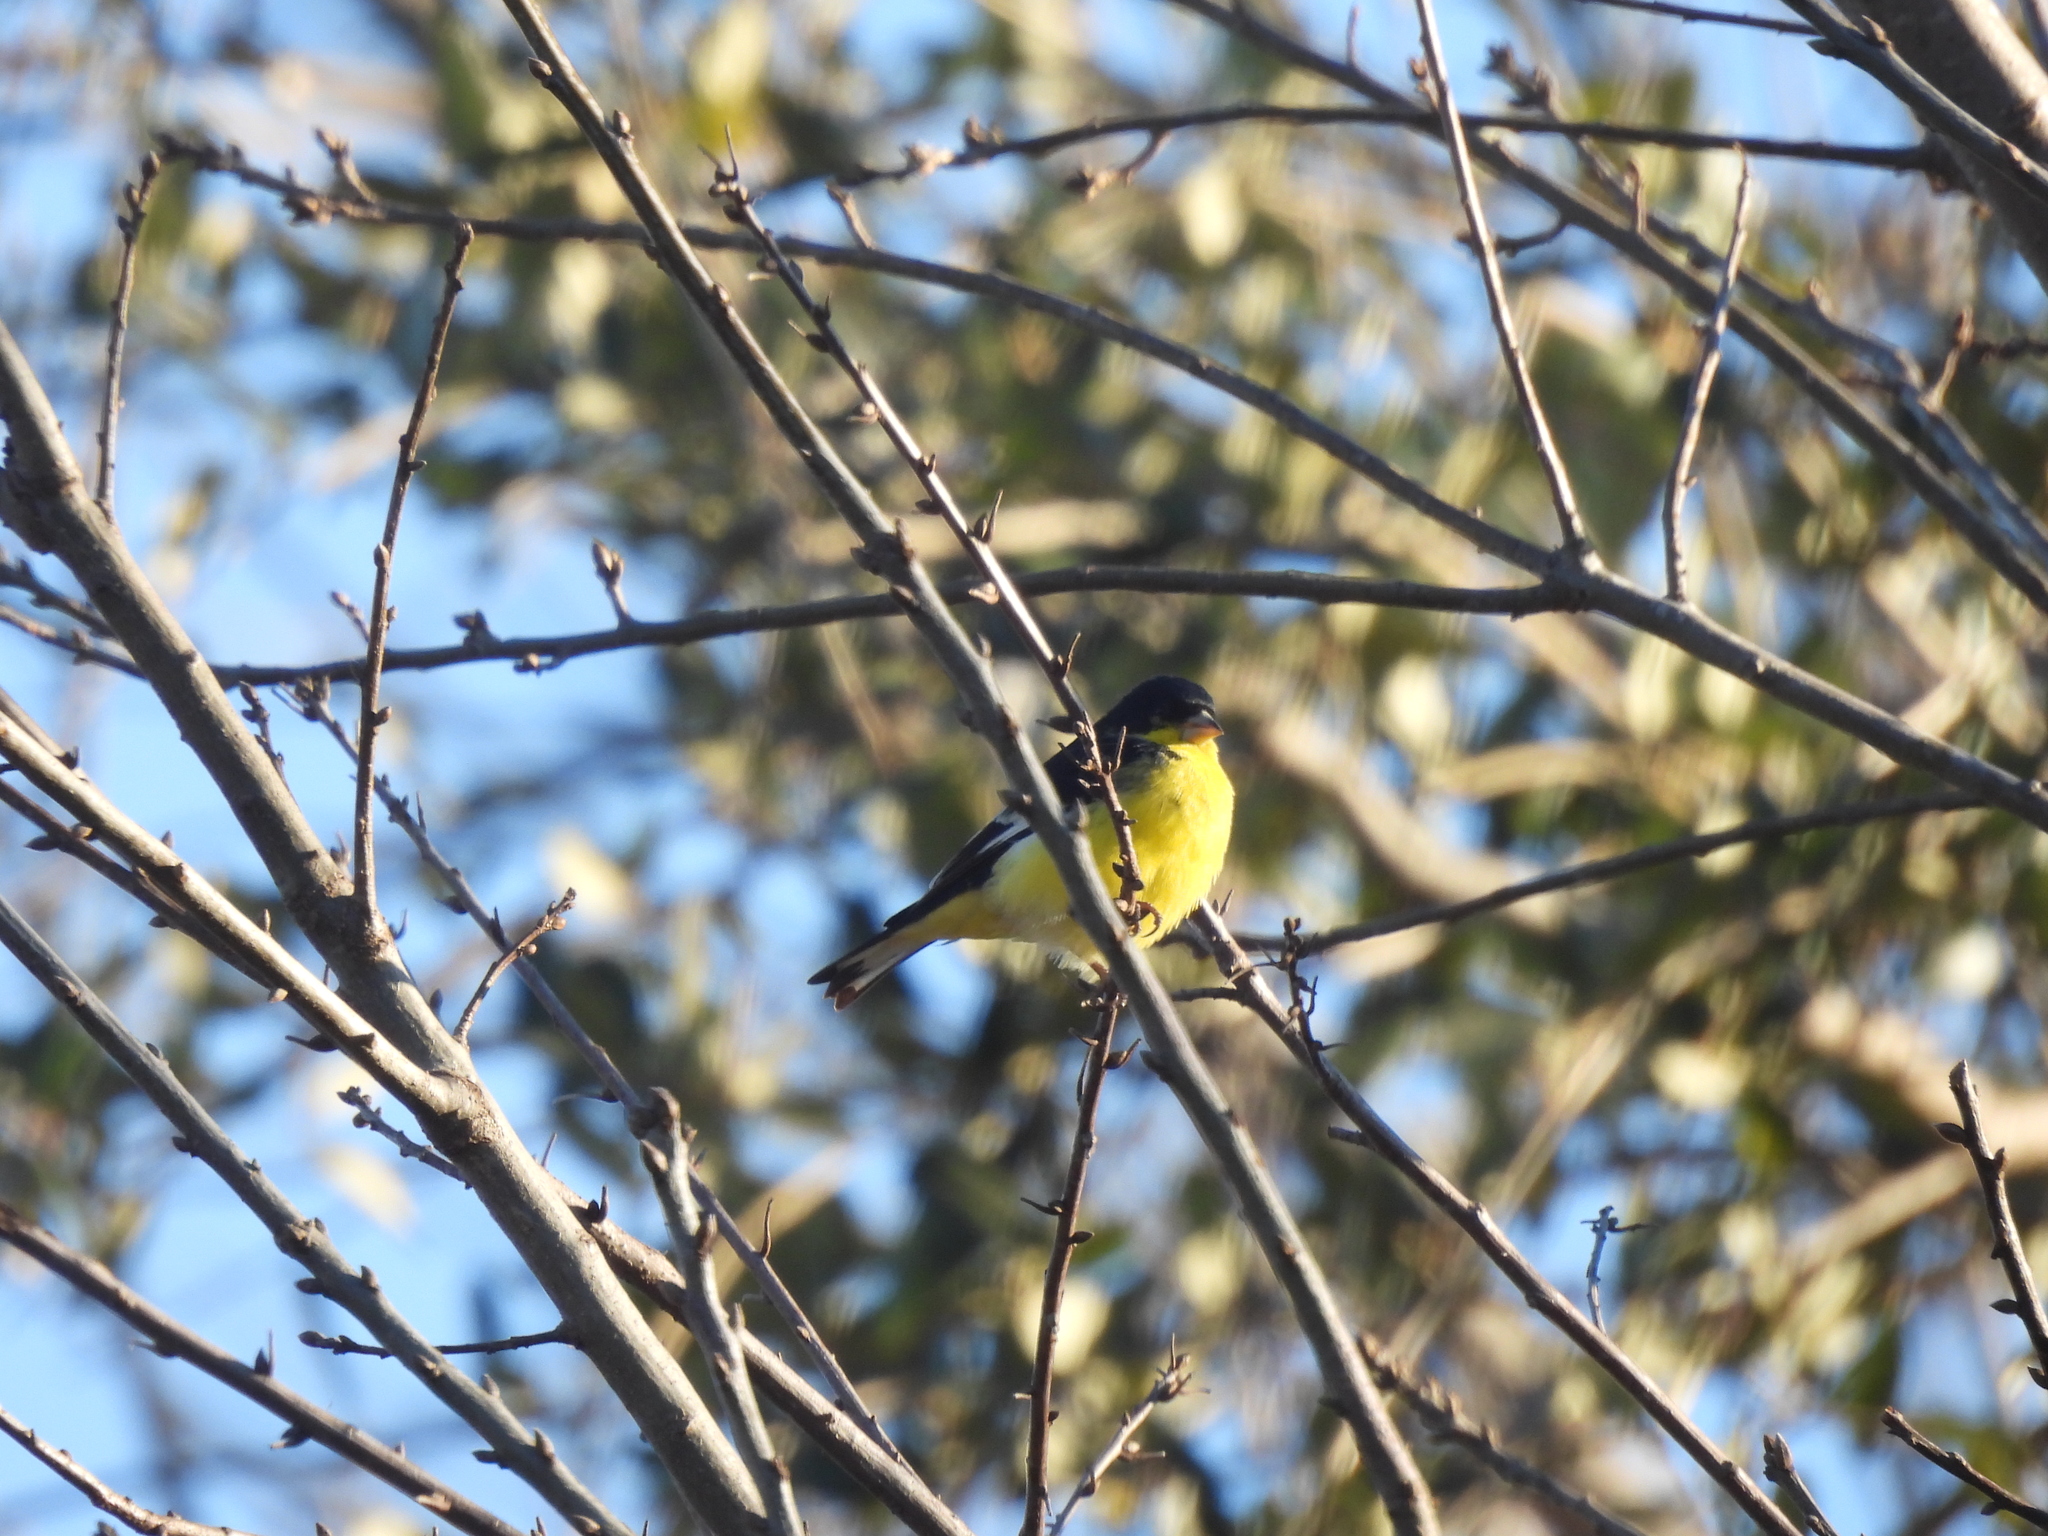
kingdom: Animalia
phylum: Chordata
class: Aves
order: Passeriformes
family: Fringillidae
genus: Spinus
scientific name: Spinus psaltria
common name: Lesser goldfinch
